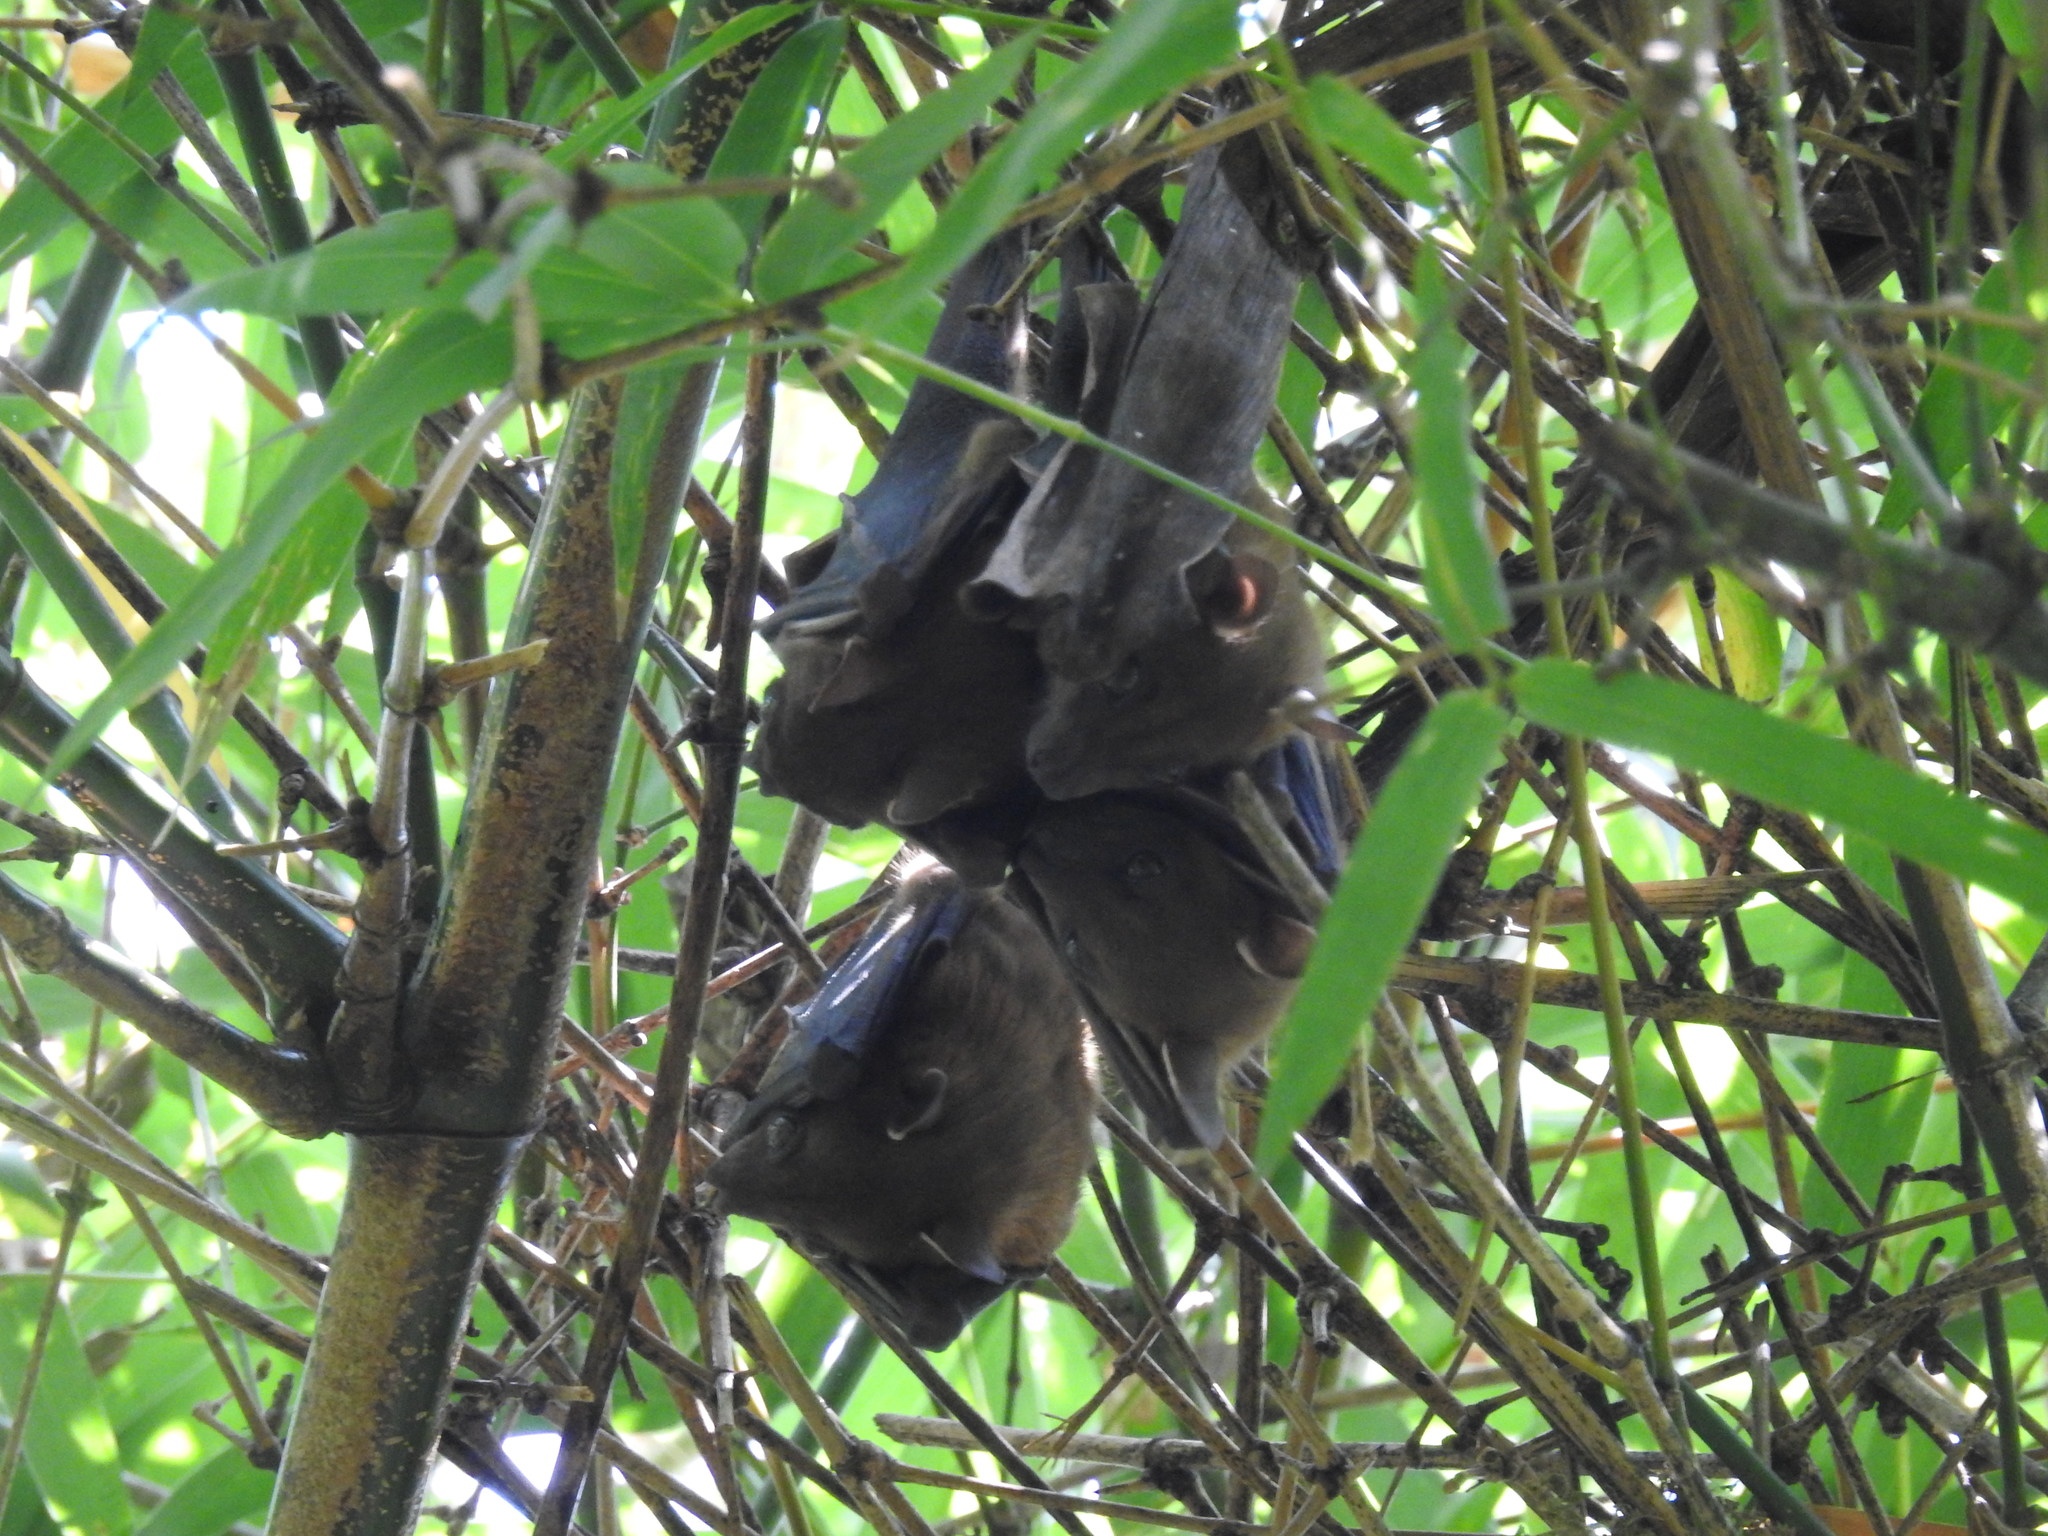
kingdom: Animalia
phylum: Chordata
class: Mammalia
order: Chiroptera
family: Pteropodidae
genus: Cynopterus
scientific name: Cynopterus sphinx
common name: Greater short-nosed fruit bat
